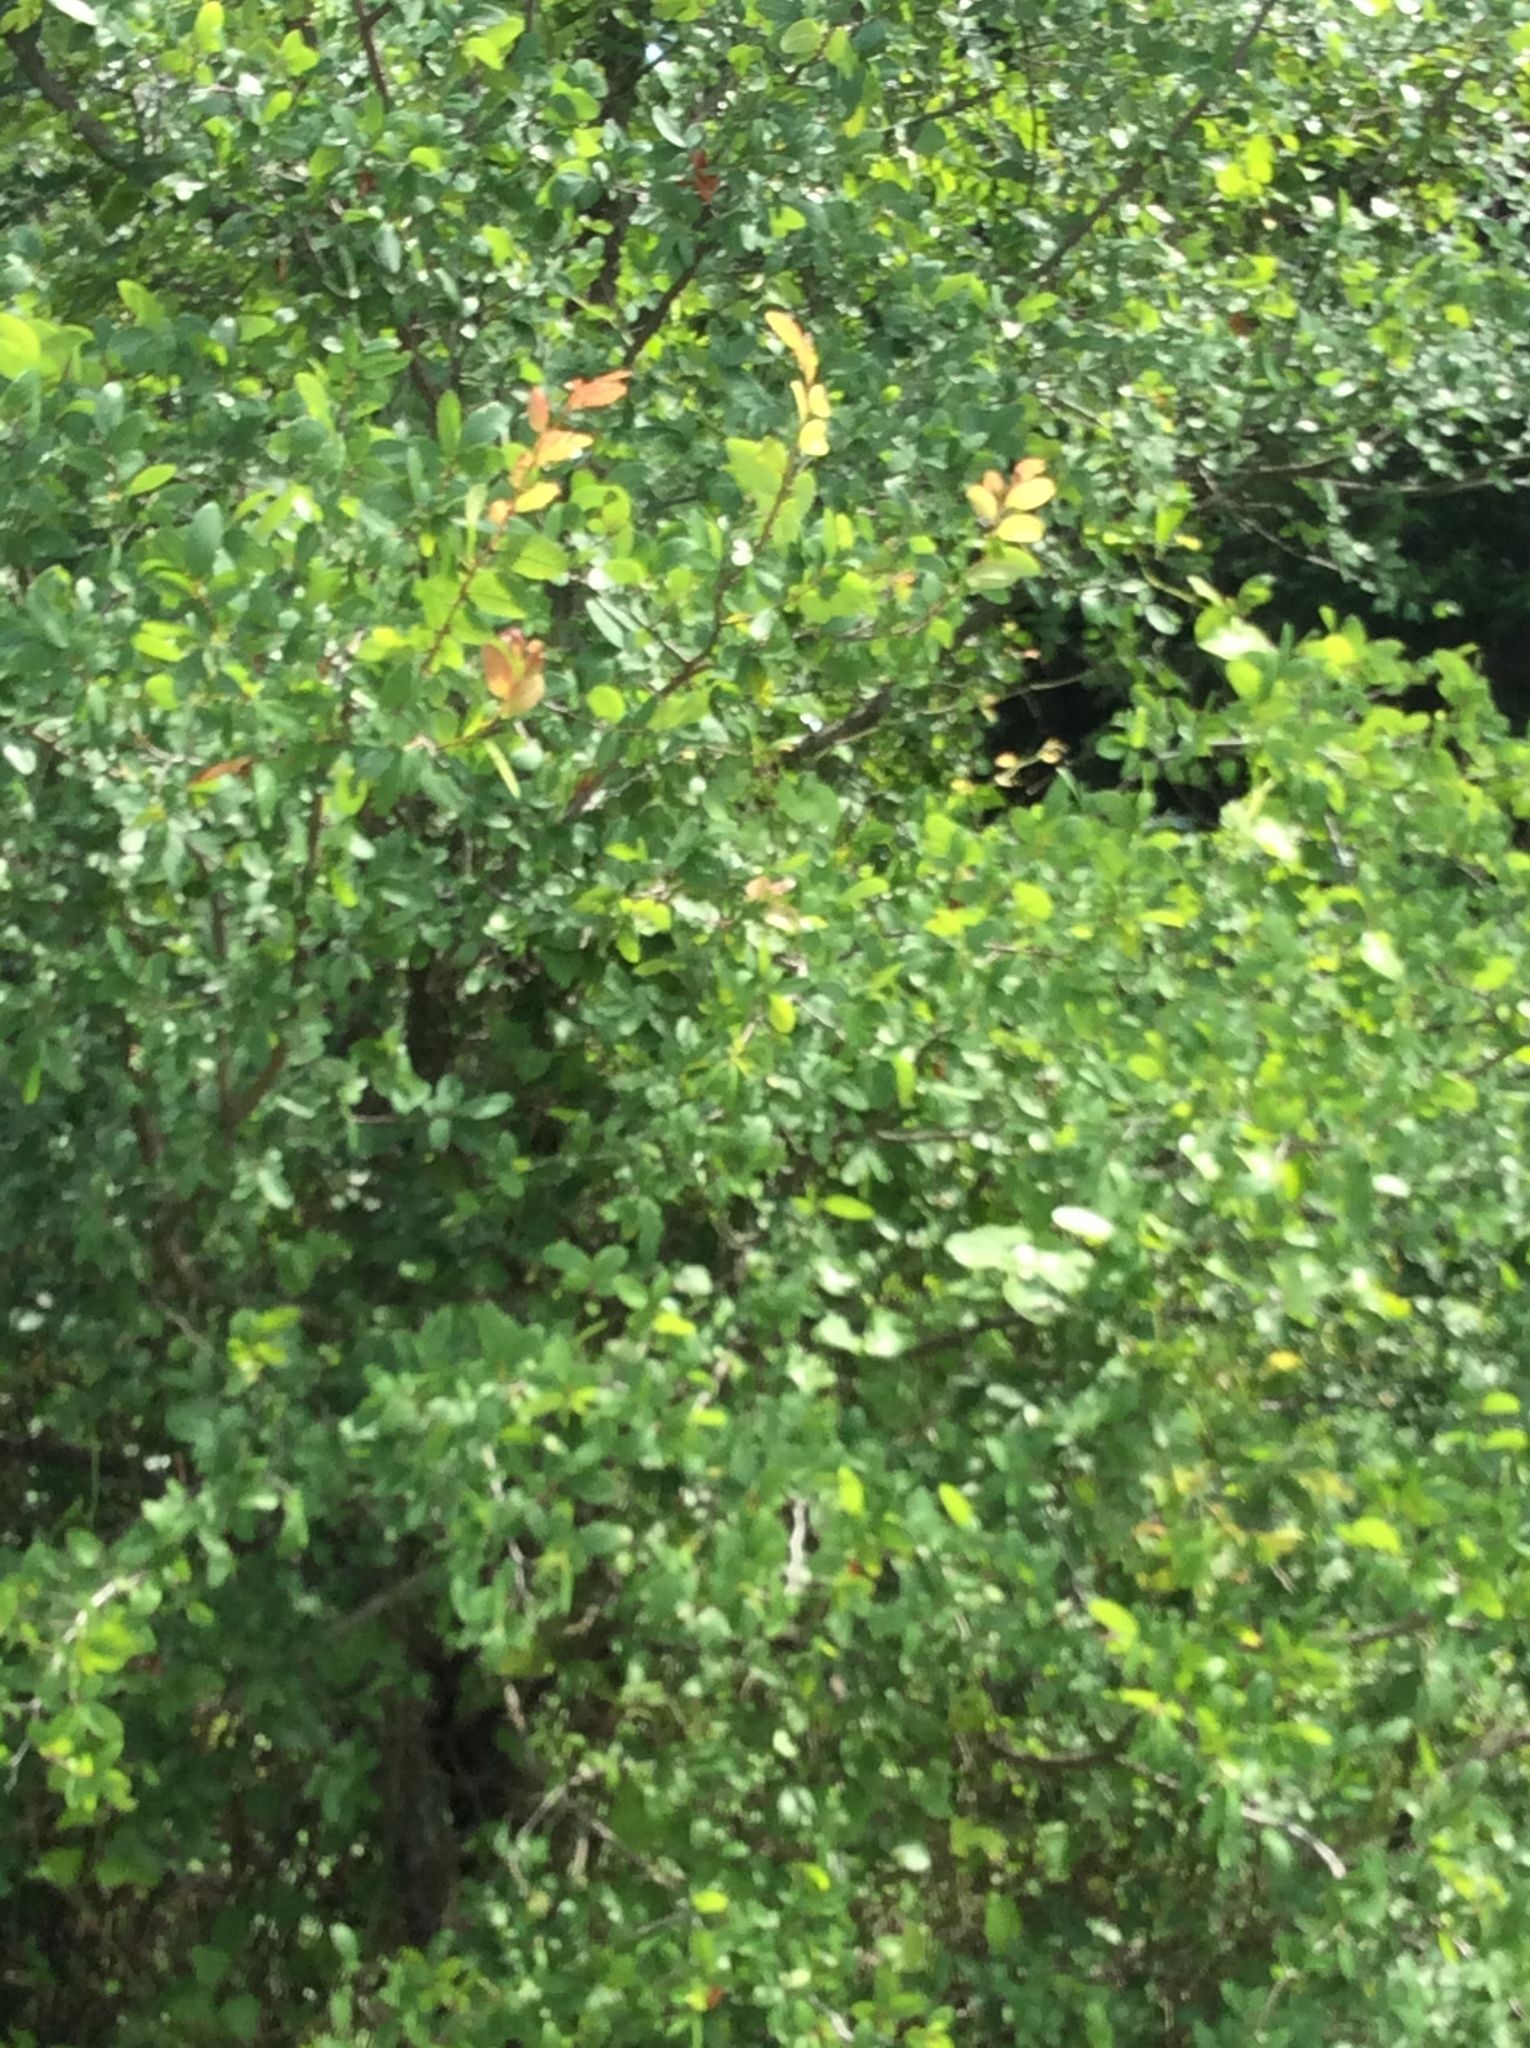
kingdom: Plantae
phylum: Tracheophyta
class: Magnoliopsida
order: Rosales
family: Ulmaceae
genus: Ulmus
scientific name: Ulmus crassifolia
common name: Basket elm
